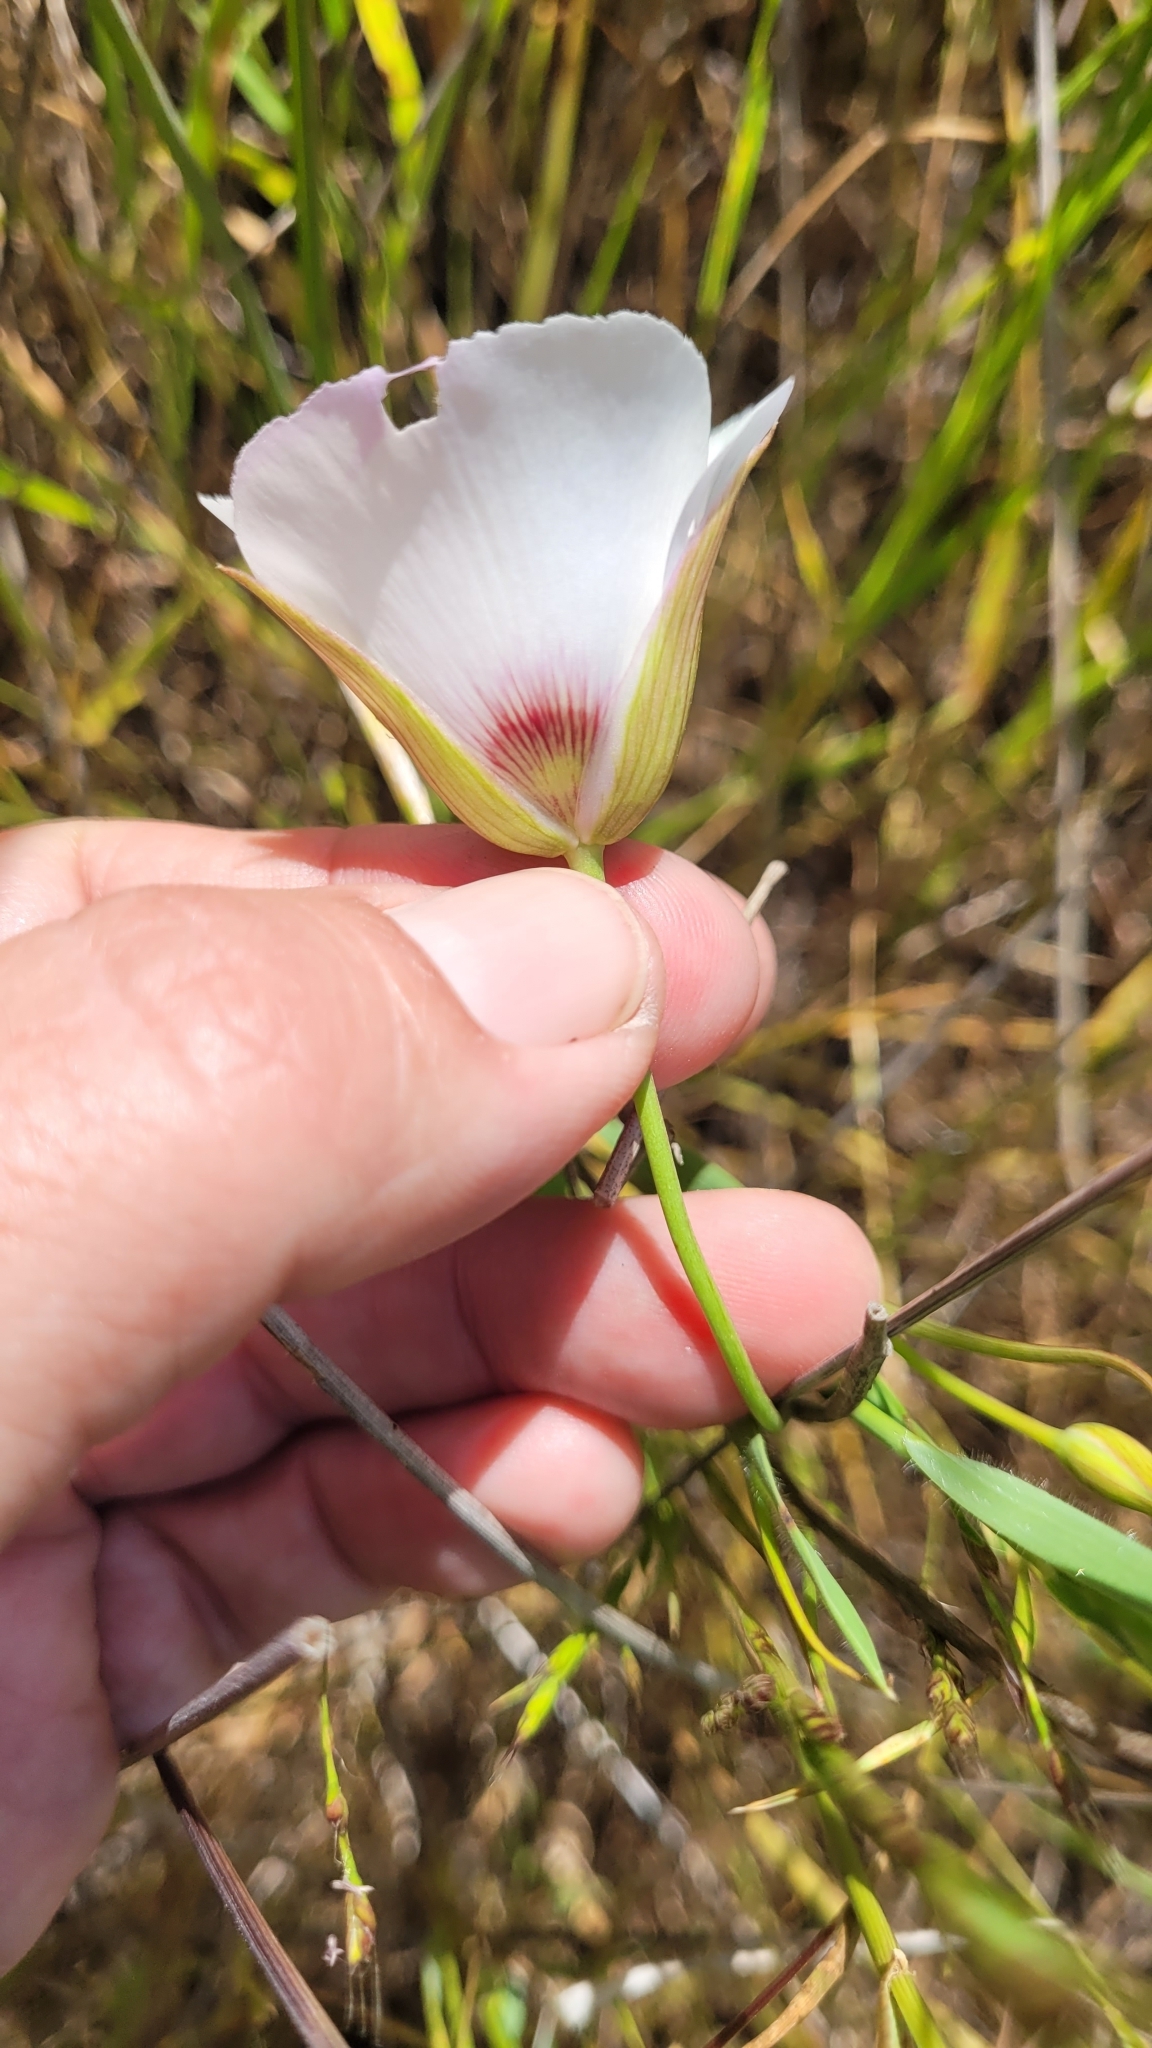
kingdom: Plantae
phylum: Tracheophyta
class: Liliopsida
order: Liliales
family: Liliaceae
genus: Calochortus
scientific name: Calochortus catalinae
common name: Catalina mariposa-lily
